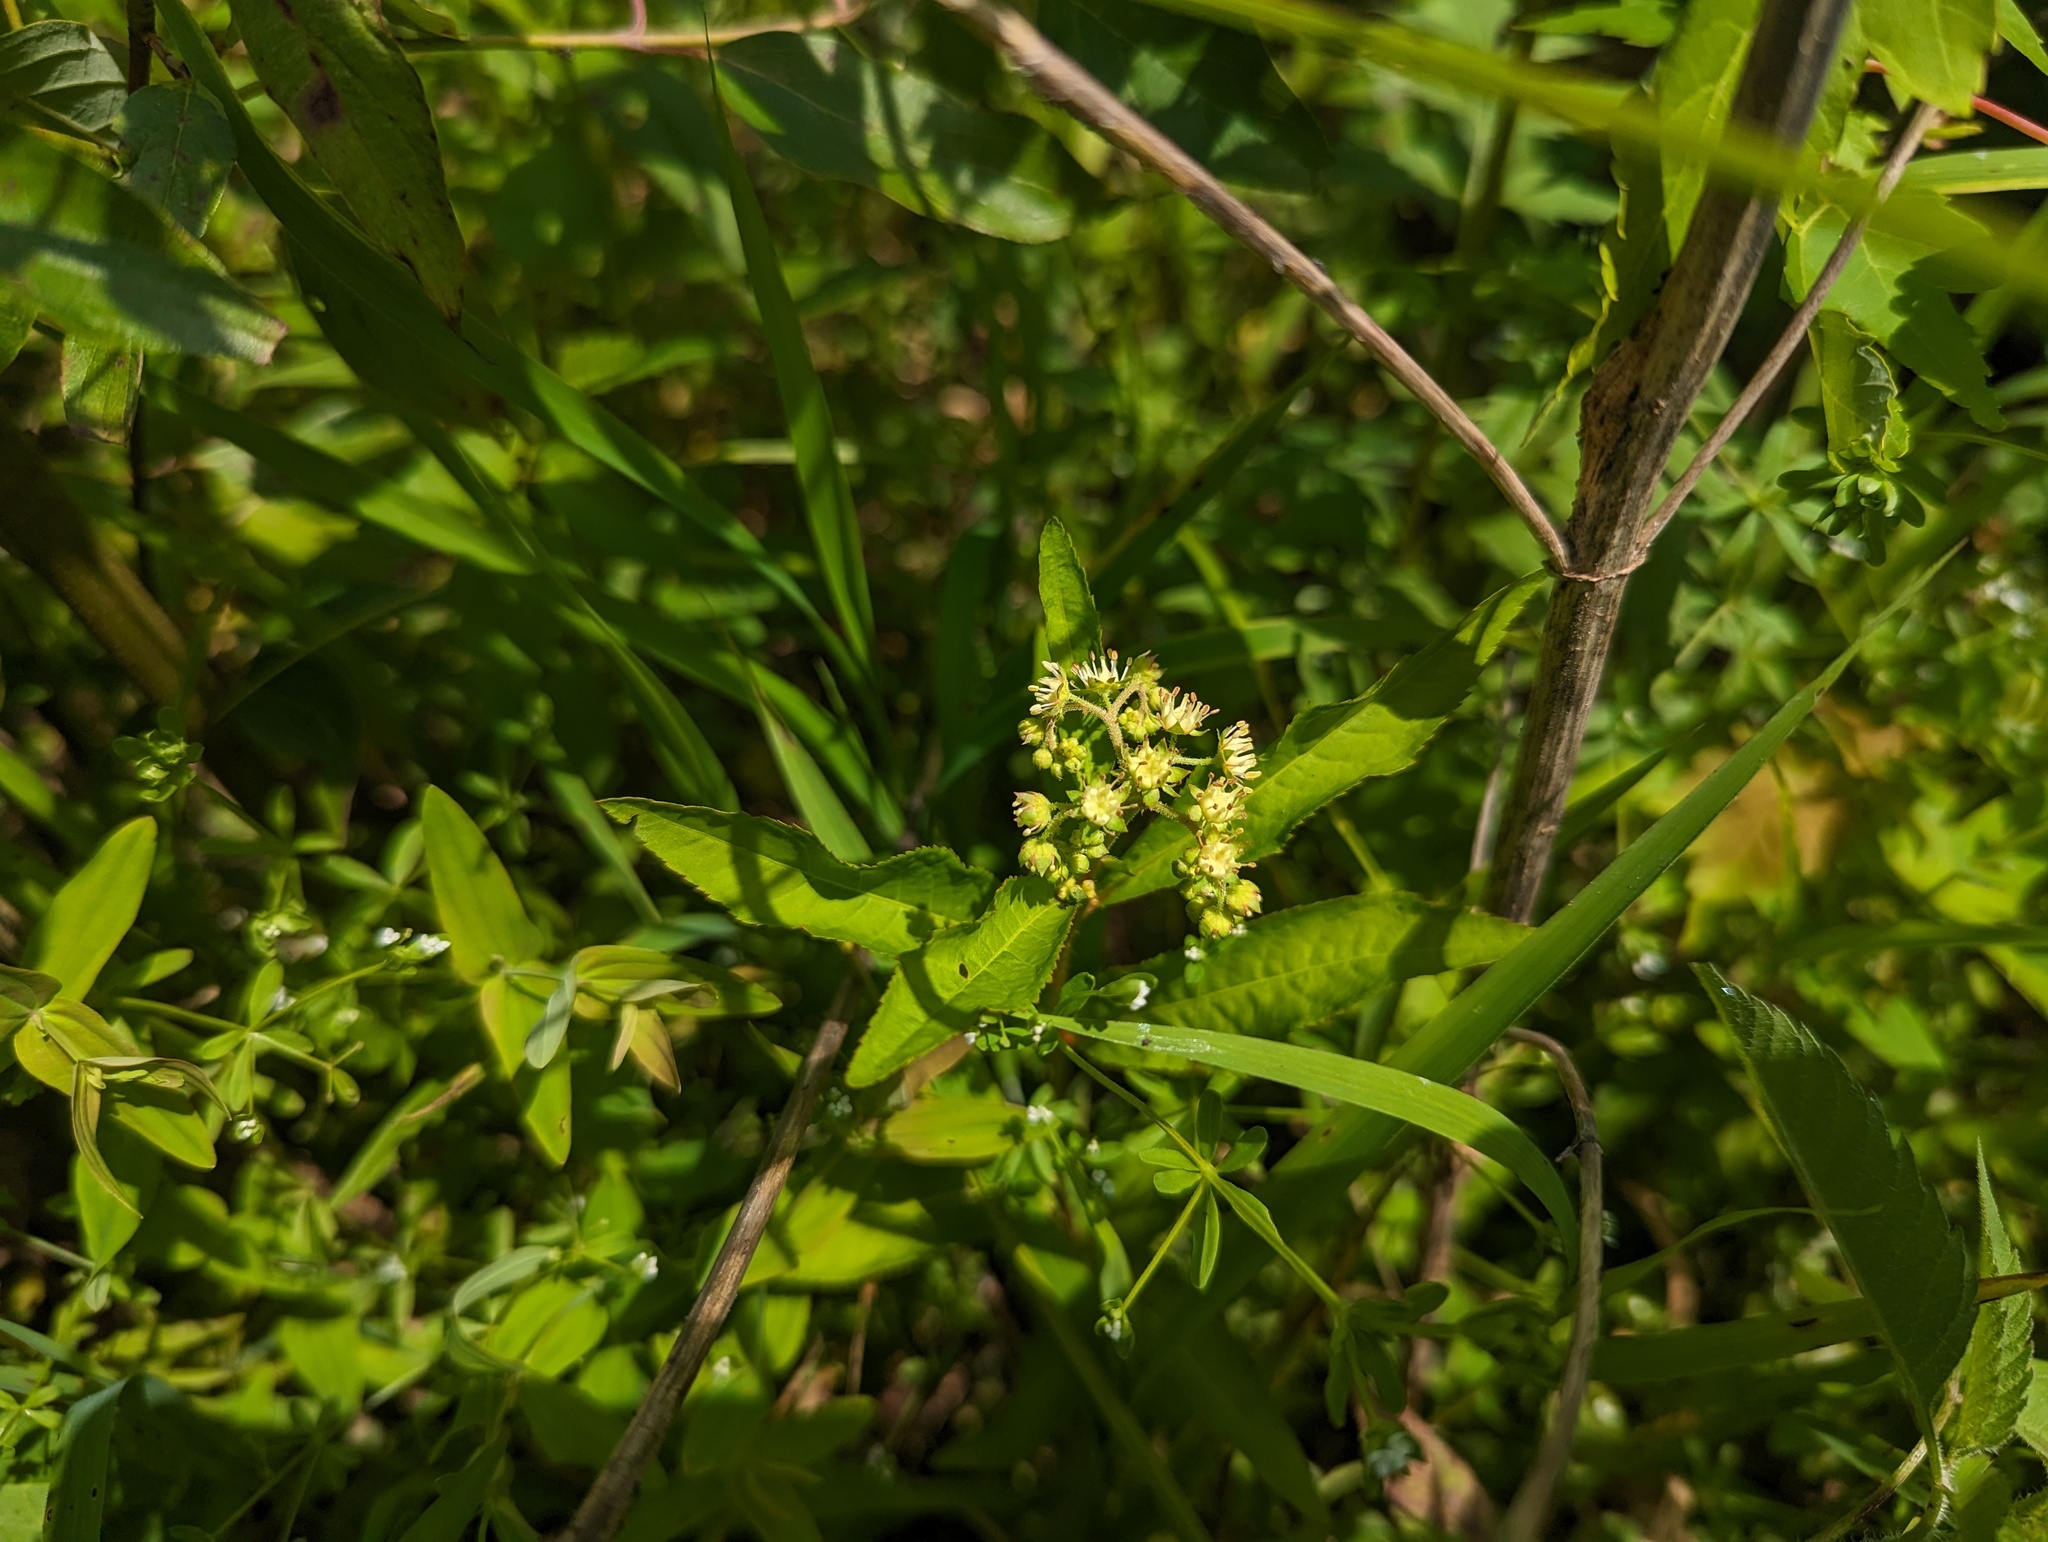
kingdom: Plantae
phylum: Tracheophyta
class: Magnoliopsida
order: Saxifragales
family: Penthoraceae
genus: Penthorum
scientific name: Penthorum sedoides
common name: Ditch stonecrop
